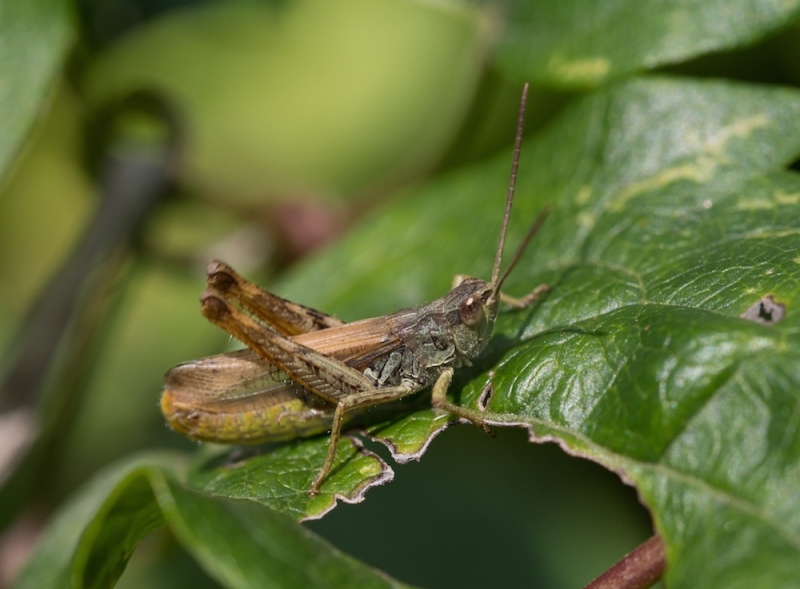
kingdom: Animalia
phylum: Arthropoda
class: Insecta
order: Orthoptera
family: Acrididae
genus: Chorthippus
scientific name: Chorthippus apricarius
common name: Upland field grasshopper
